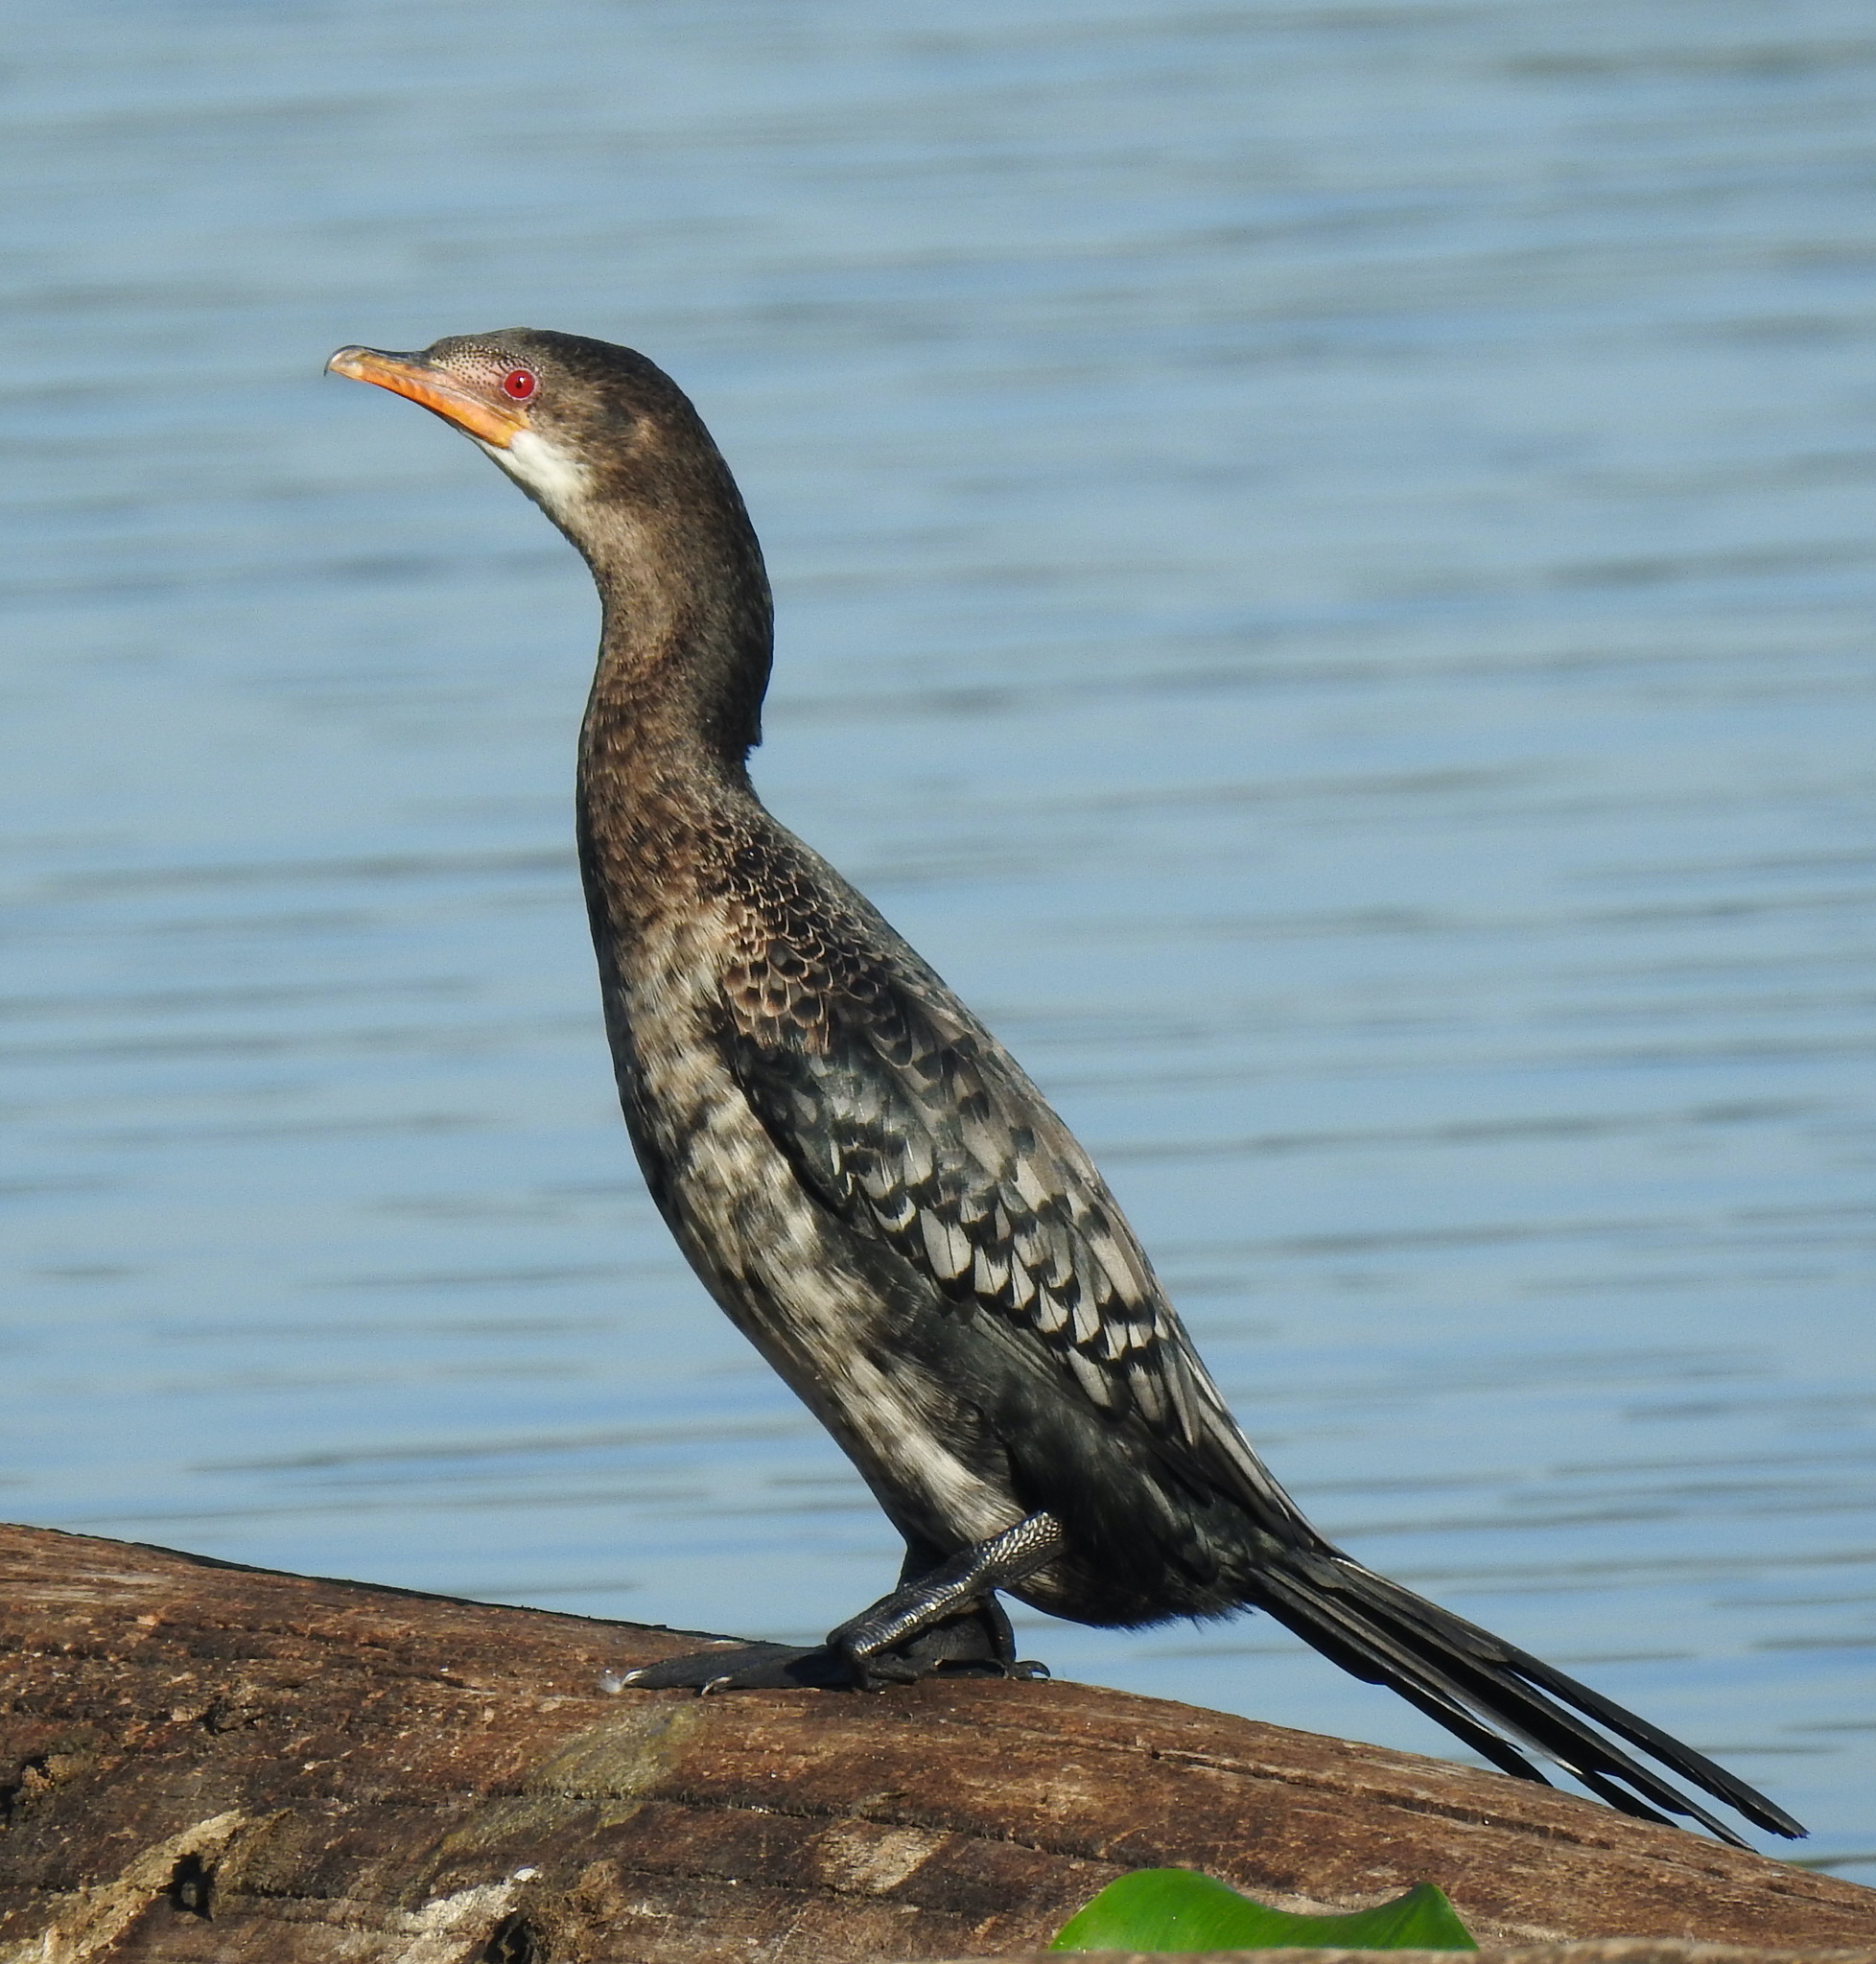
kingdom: Animalia
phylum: Chordata
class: Aves
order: Suliformes
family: Phalacrocoracidae
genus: Microcarbo
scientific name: Microcarbo africanus
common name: Long-tailed cormorant
